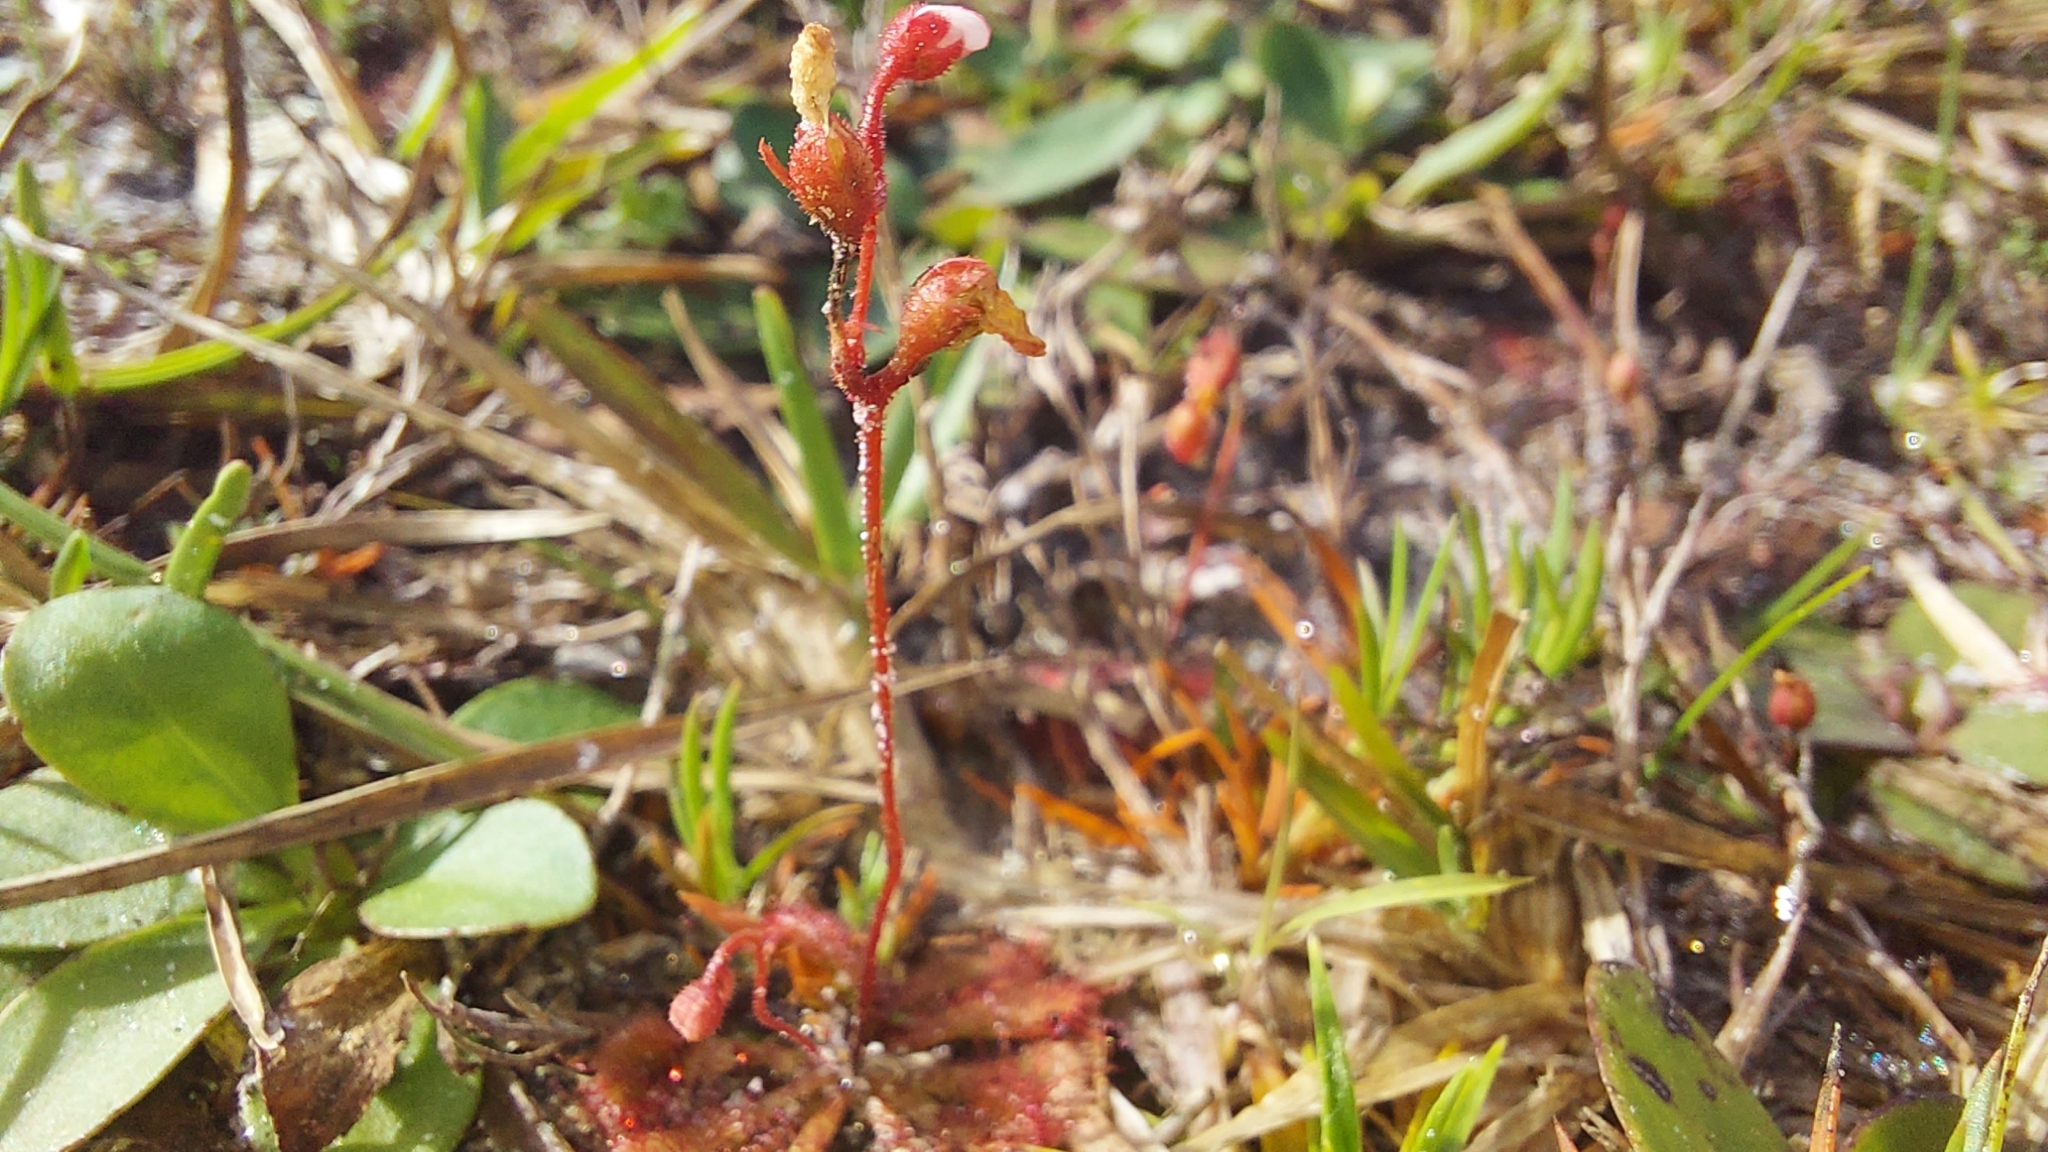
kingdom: Plantae
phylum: Tracheophyta
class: Magnoliopsida
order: Caryophyllales
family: Droseraceae
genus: Drosera
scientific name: Drosera brevifolia
